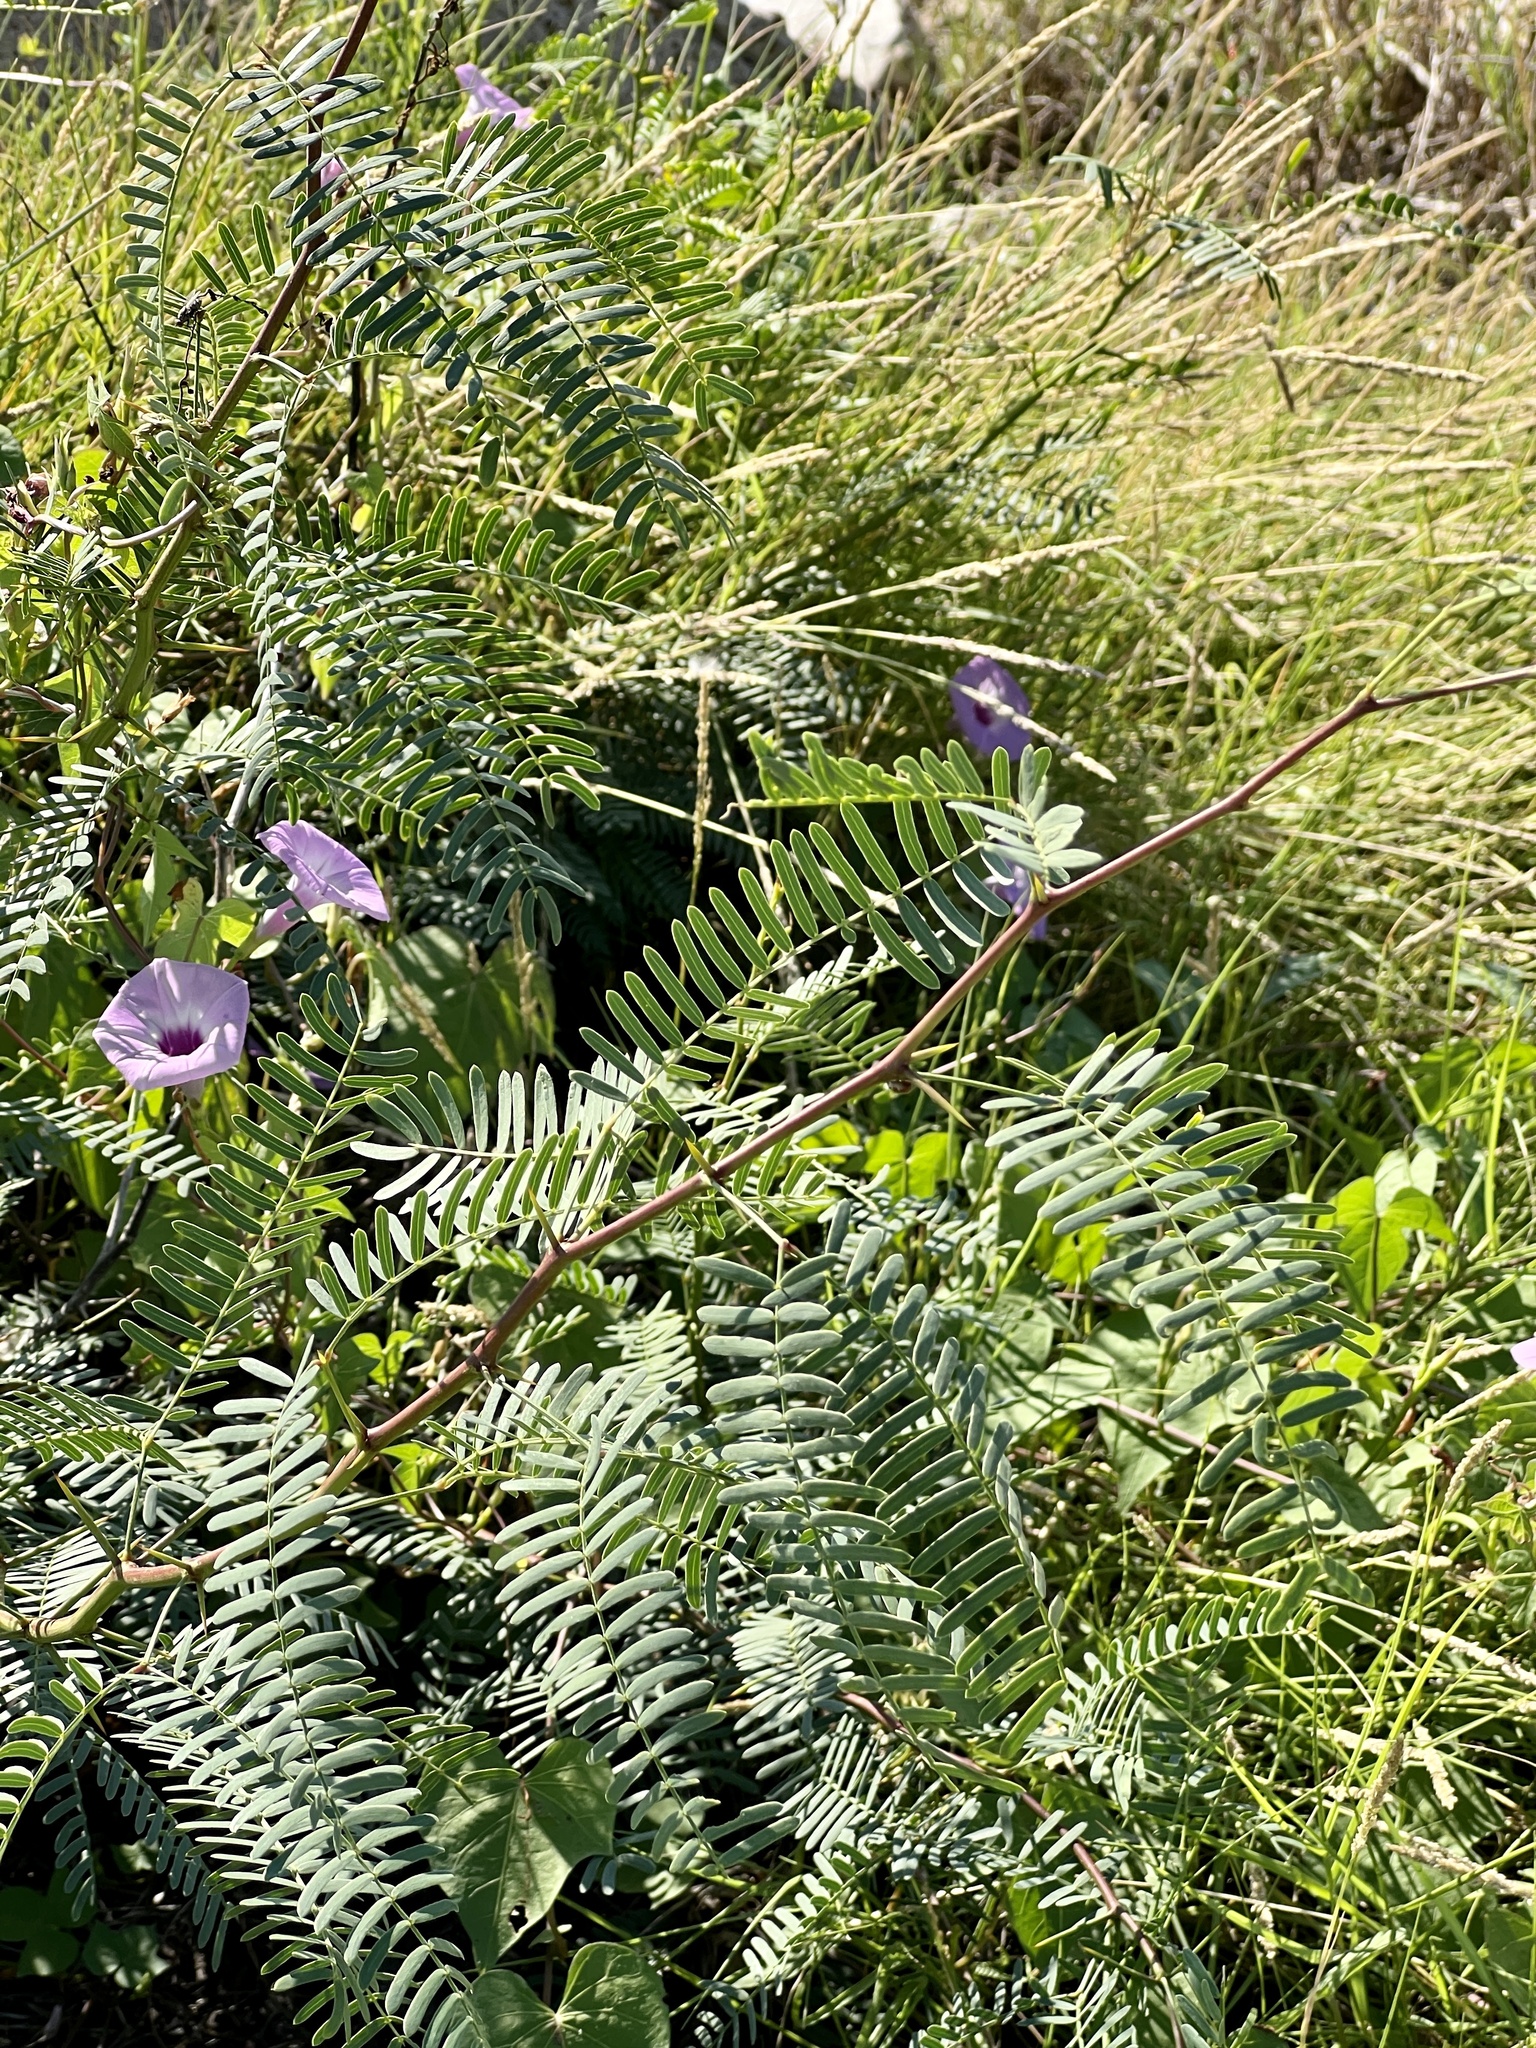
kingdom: Plantae
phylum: Tracheophyta
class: Magnoliopsida
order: Fabales
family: Fabaceae
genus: Prosopis
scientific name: Prosopis glandulosa
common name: Honey mesquite
